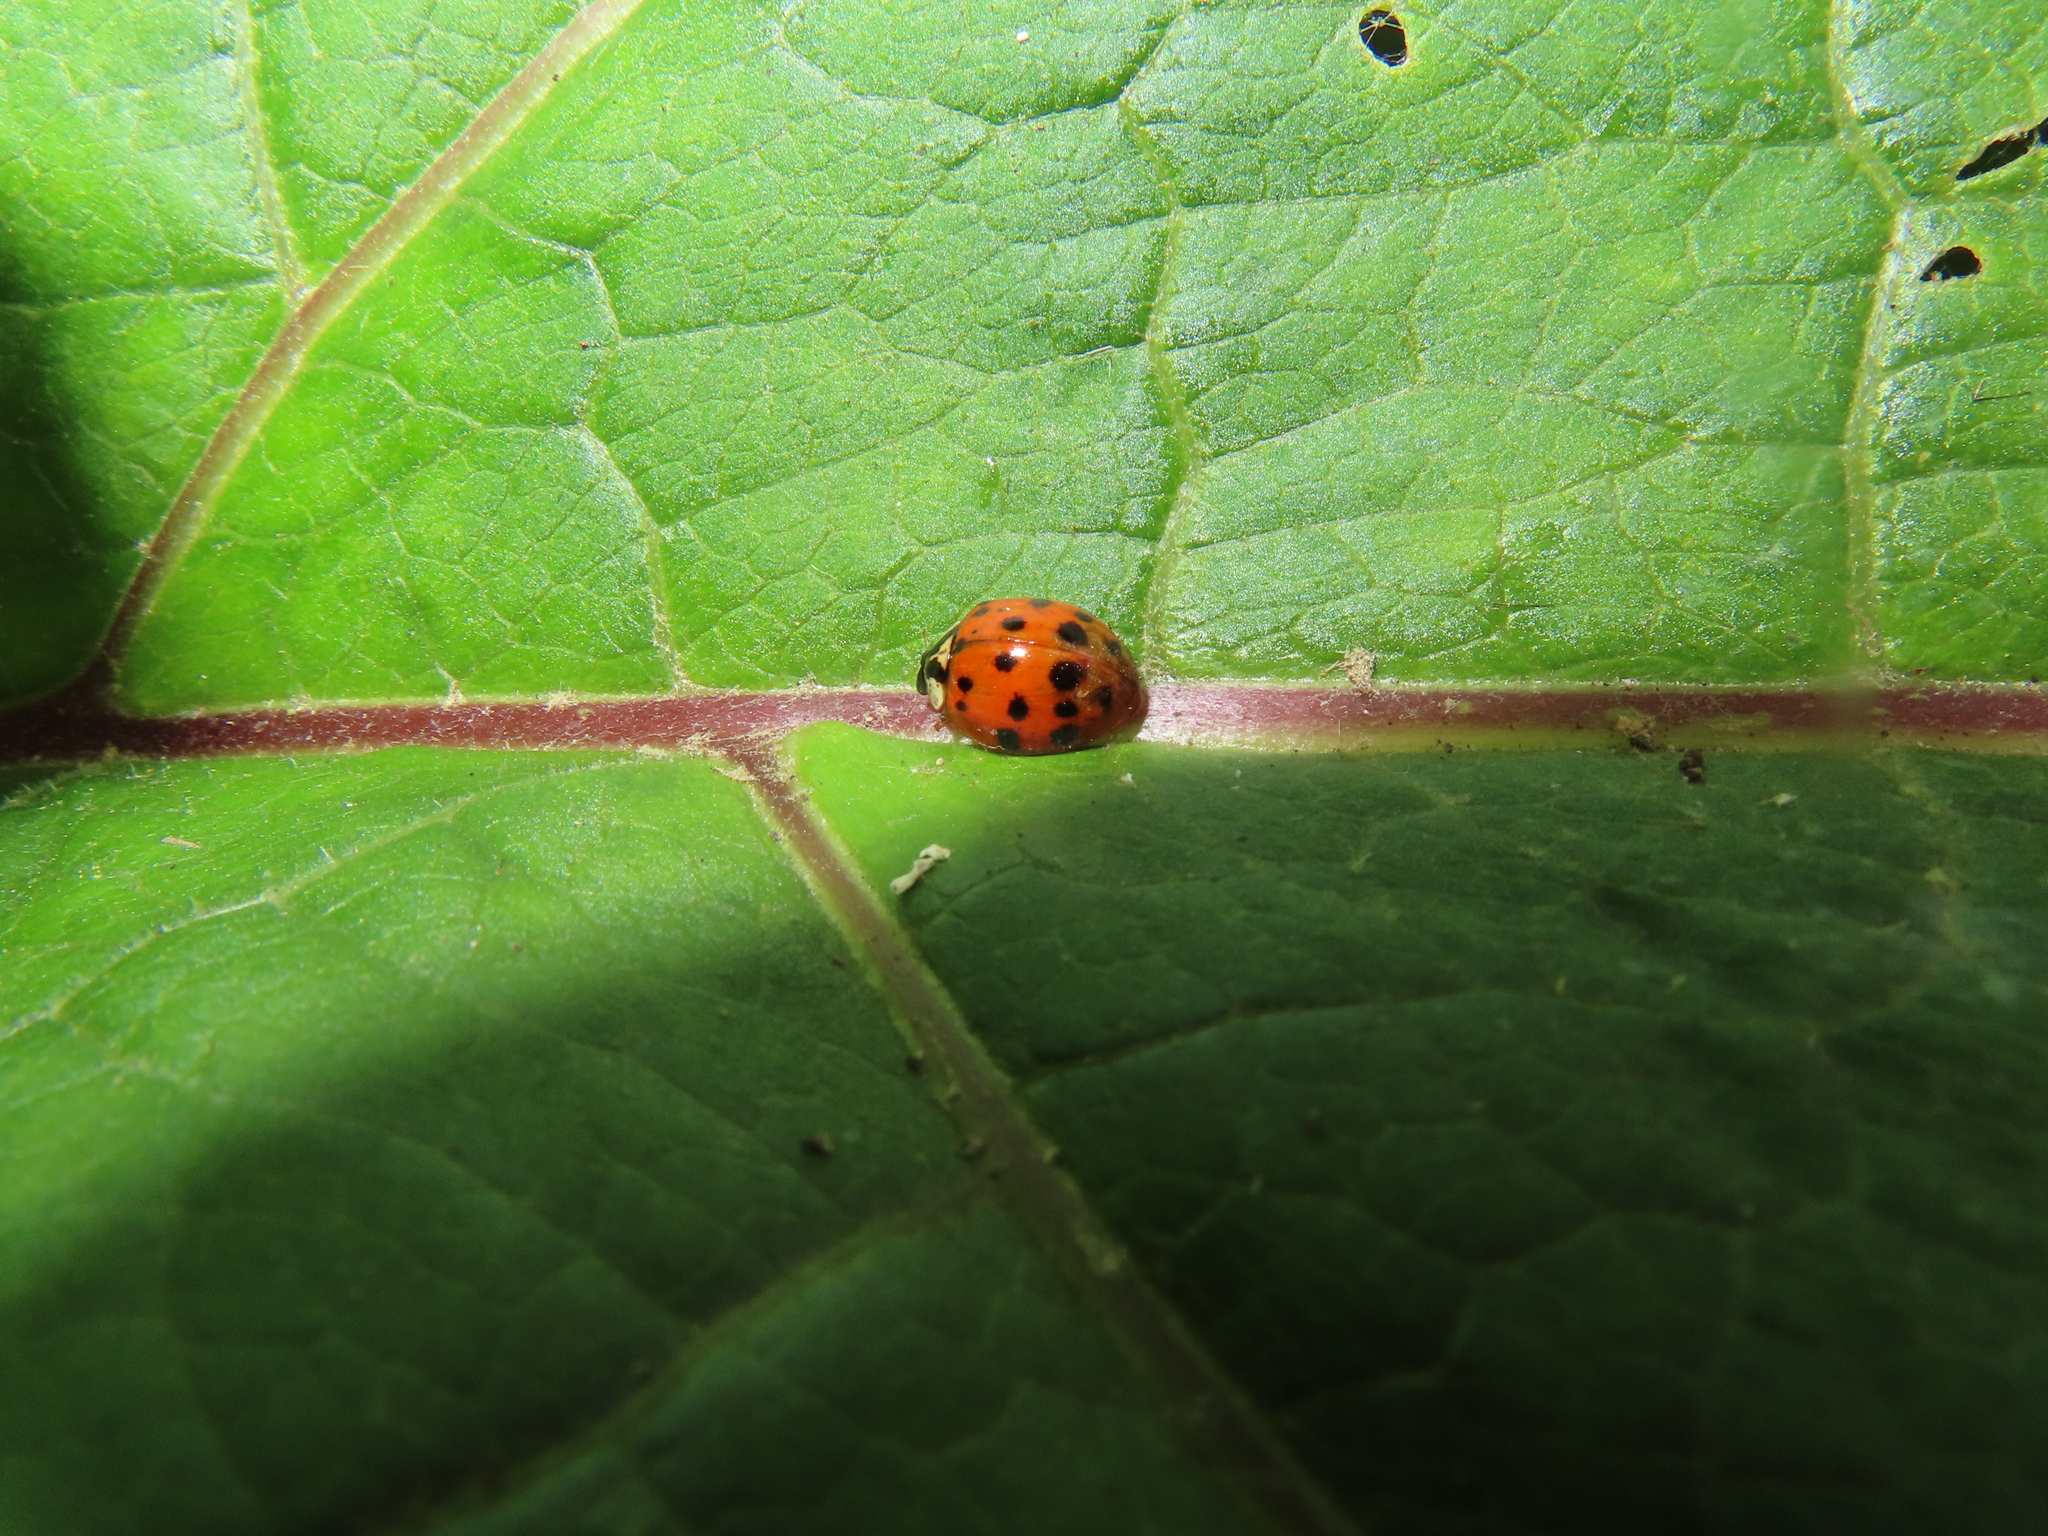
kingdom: Animalia
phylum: Arthropoda
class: Insecta
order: Coleoptera
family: Coccinellidae
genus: Harmonia
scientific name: Harmonia axyridis
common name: Harlequin ladybird
